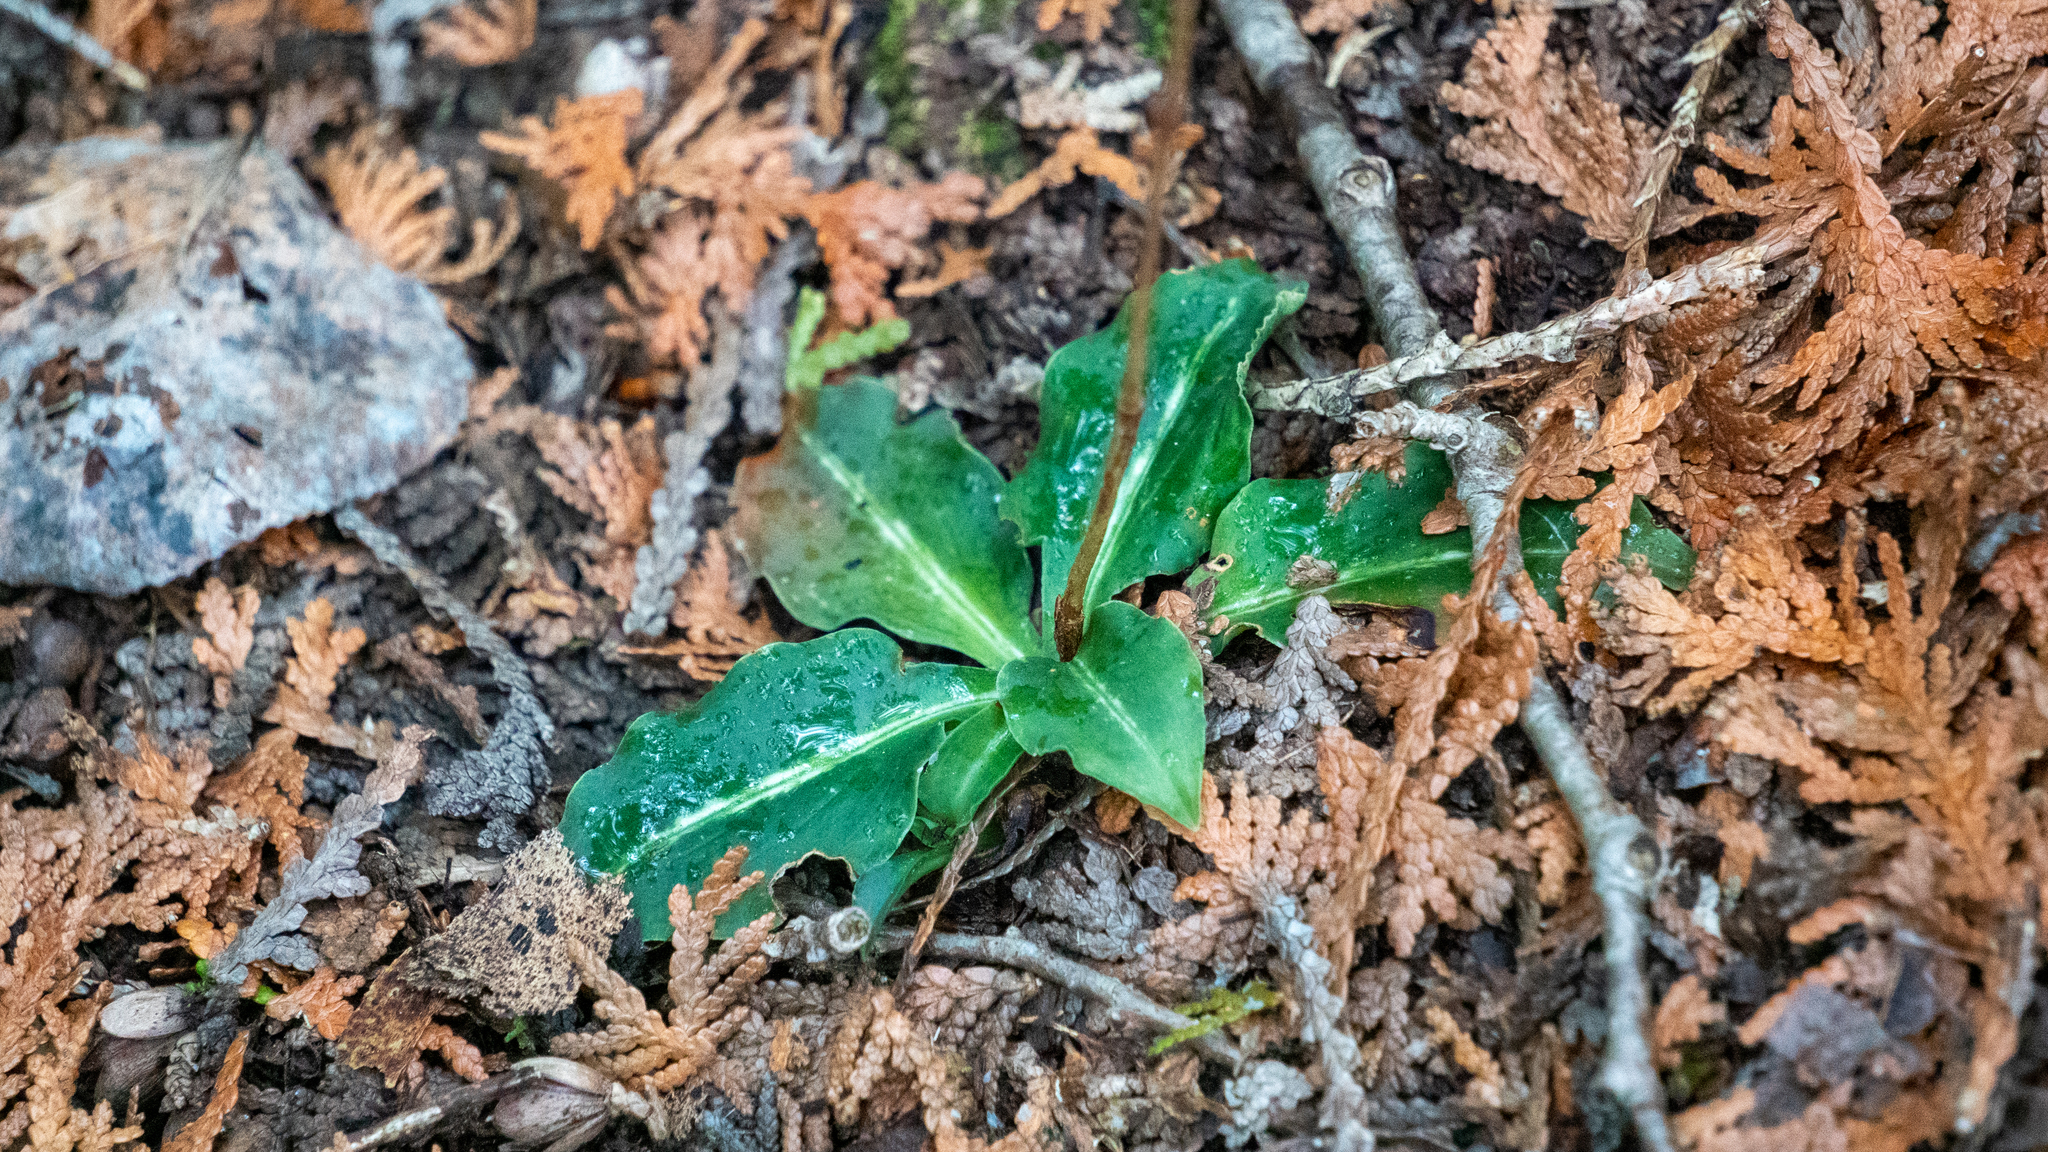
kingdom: Plantae
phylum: Tracheophyta
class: Liliopsida
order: Asparagales
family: Orchidaceae
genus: Goodyera
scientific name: Goodyera oblongifolia
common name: Giant rattlesnake-plantain
